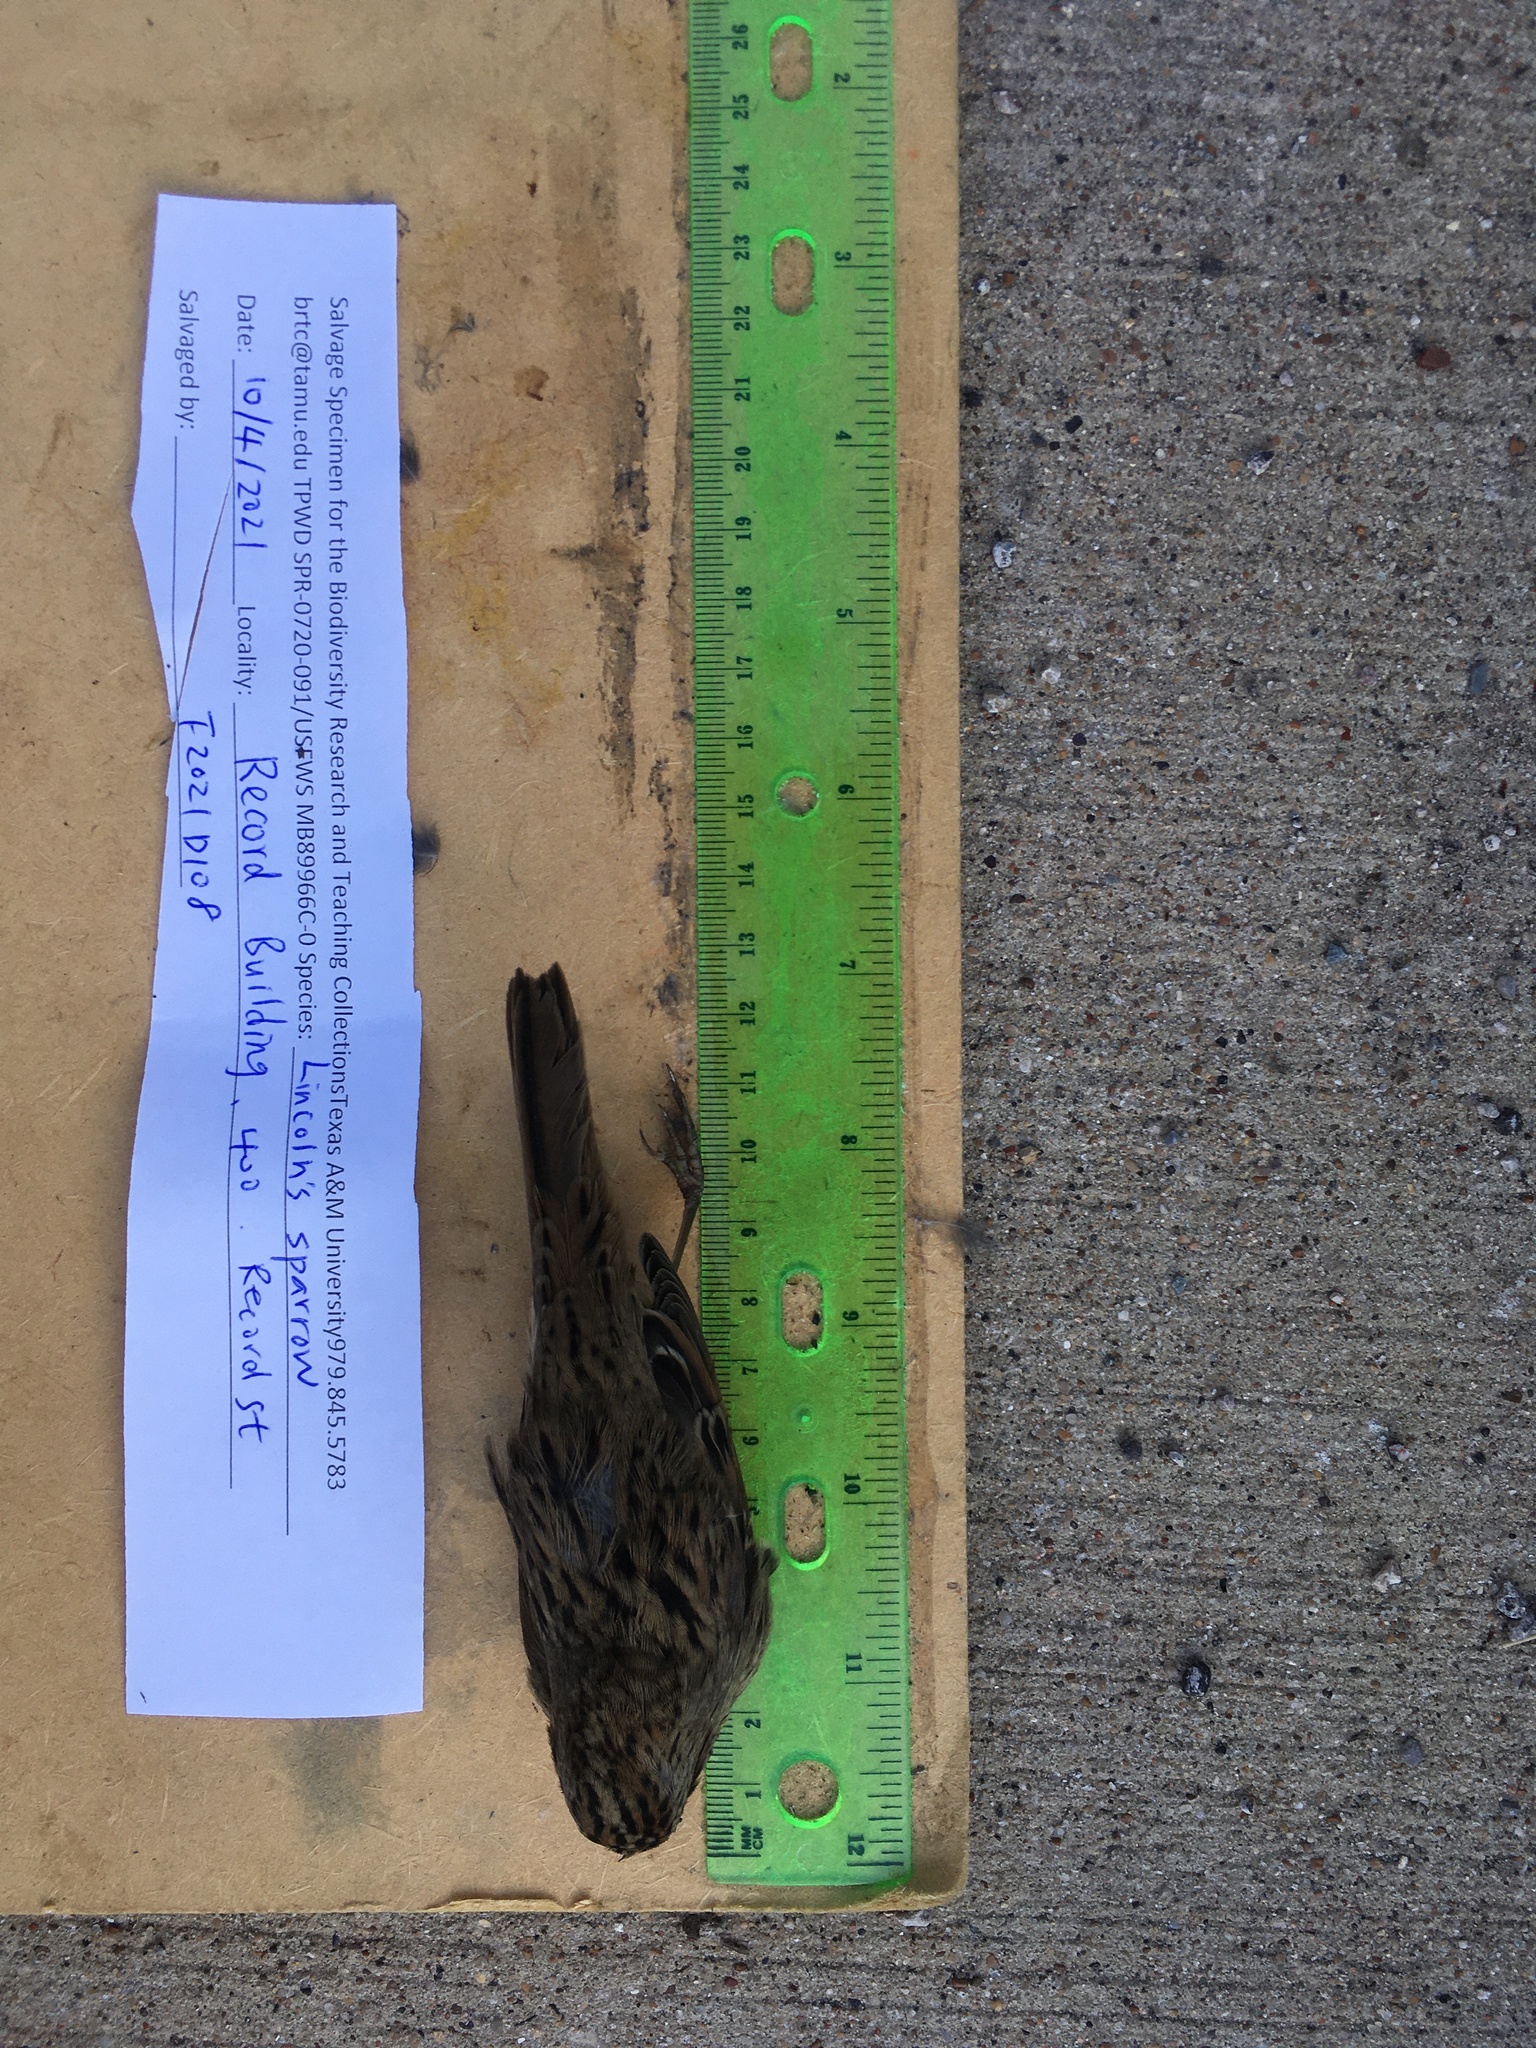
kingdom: Animalia
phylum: Chordata
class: Aves
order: Passeriformes
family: Passerellidae
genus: Melospiza
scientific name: Melospiza lincolnii
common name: Lincoln's sparrow
